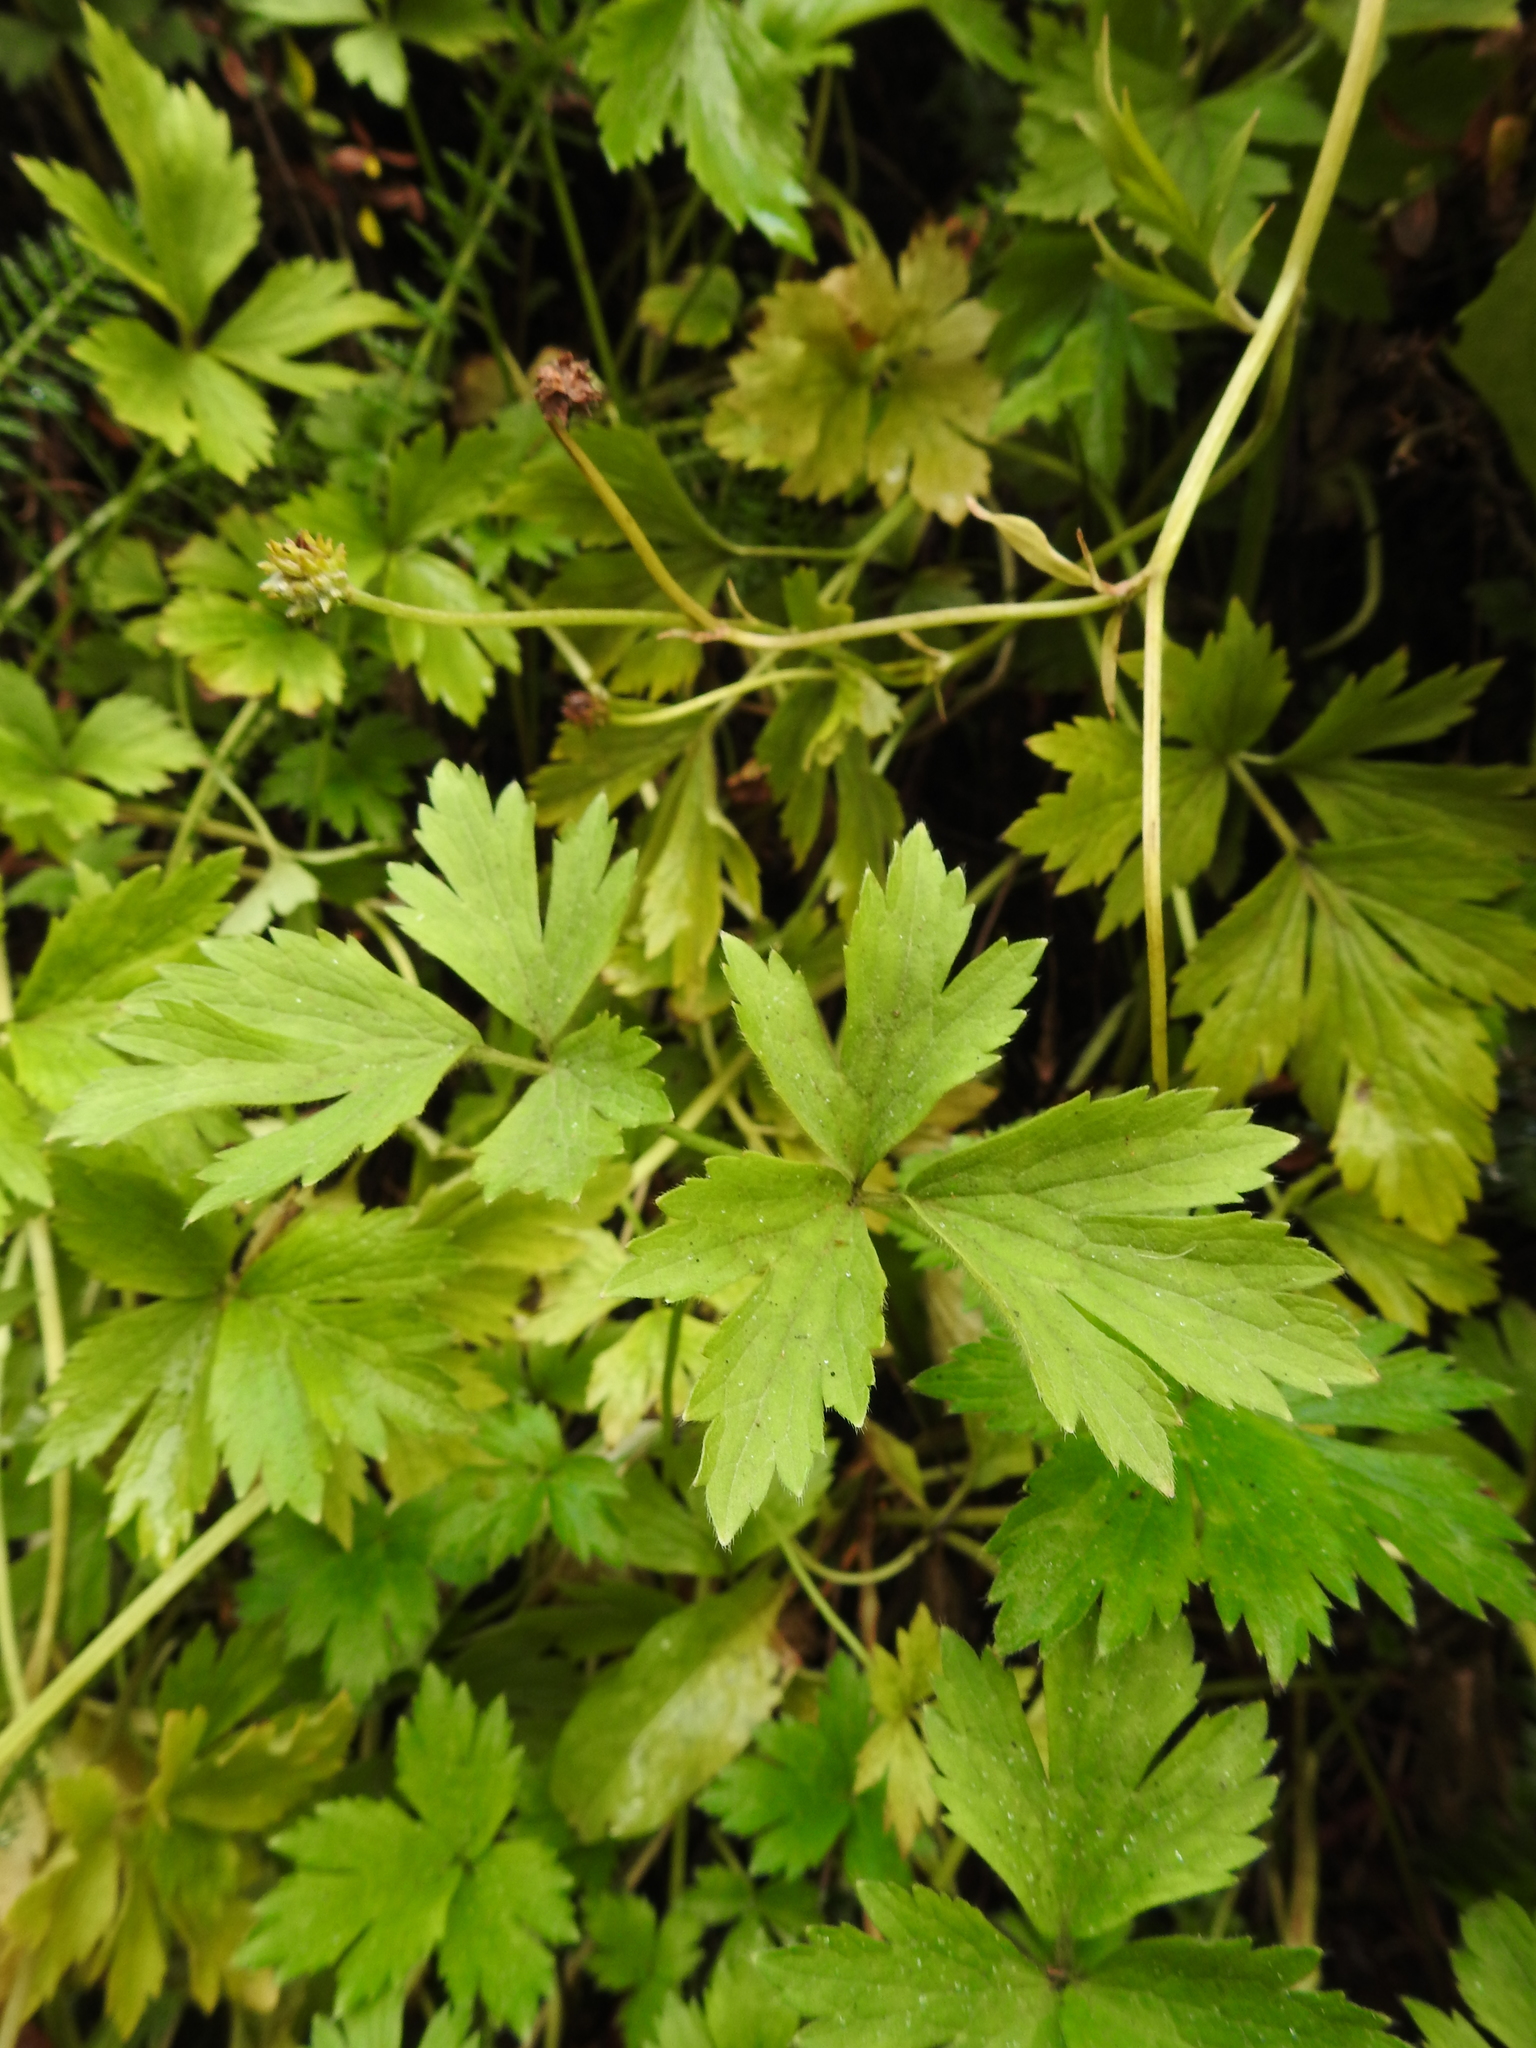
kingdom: Plantae
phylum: Tracheophyta
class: Magnoliopsida
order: Ranunculales
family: Ranunculaceae
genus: Ranunculus
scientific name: Ranunculus repens
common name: Creeping buttercup
